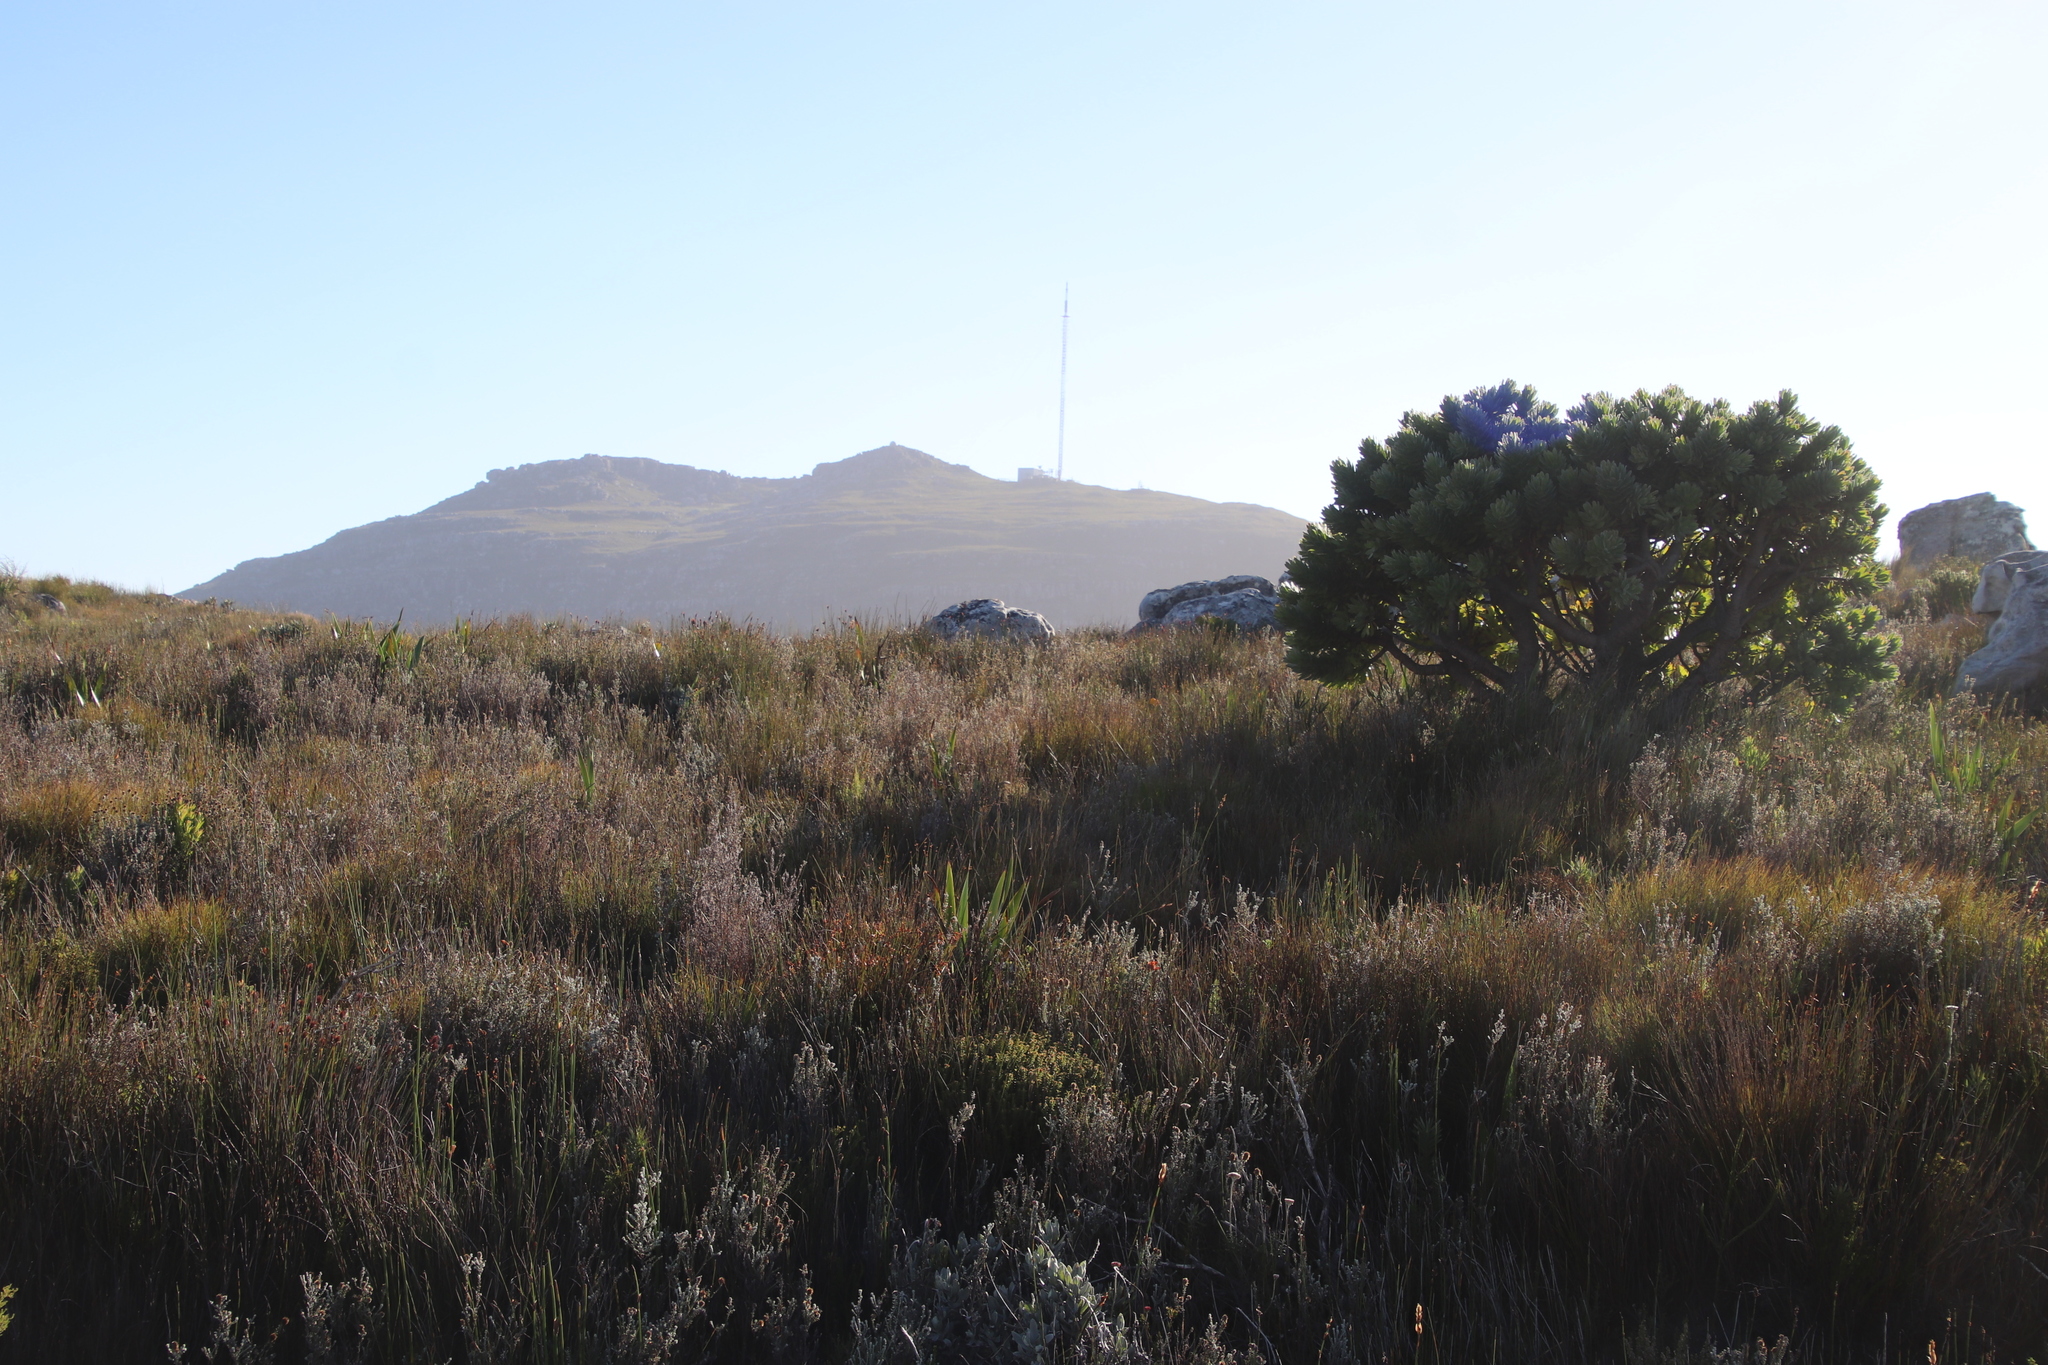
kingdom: Plantae
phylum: Tracheophyta
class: Magnoliopsida
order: Proteales
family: Proteaceae
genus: Mimetes
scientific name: Mimetes fimbriifolius
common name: Fringed bottlebrush
